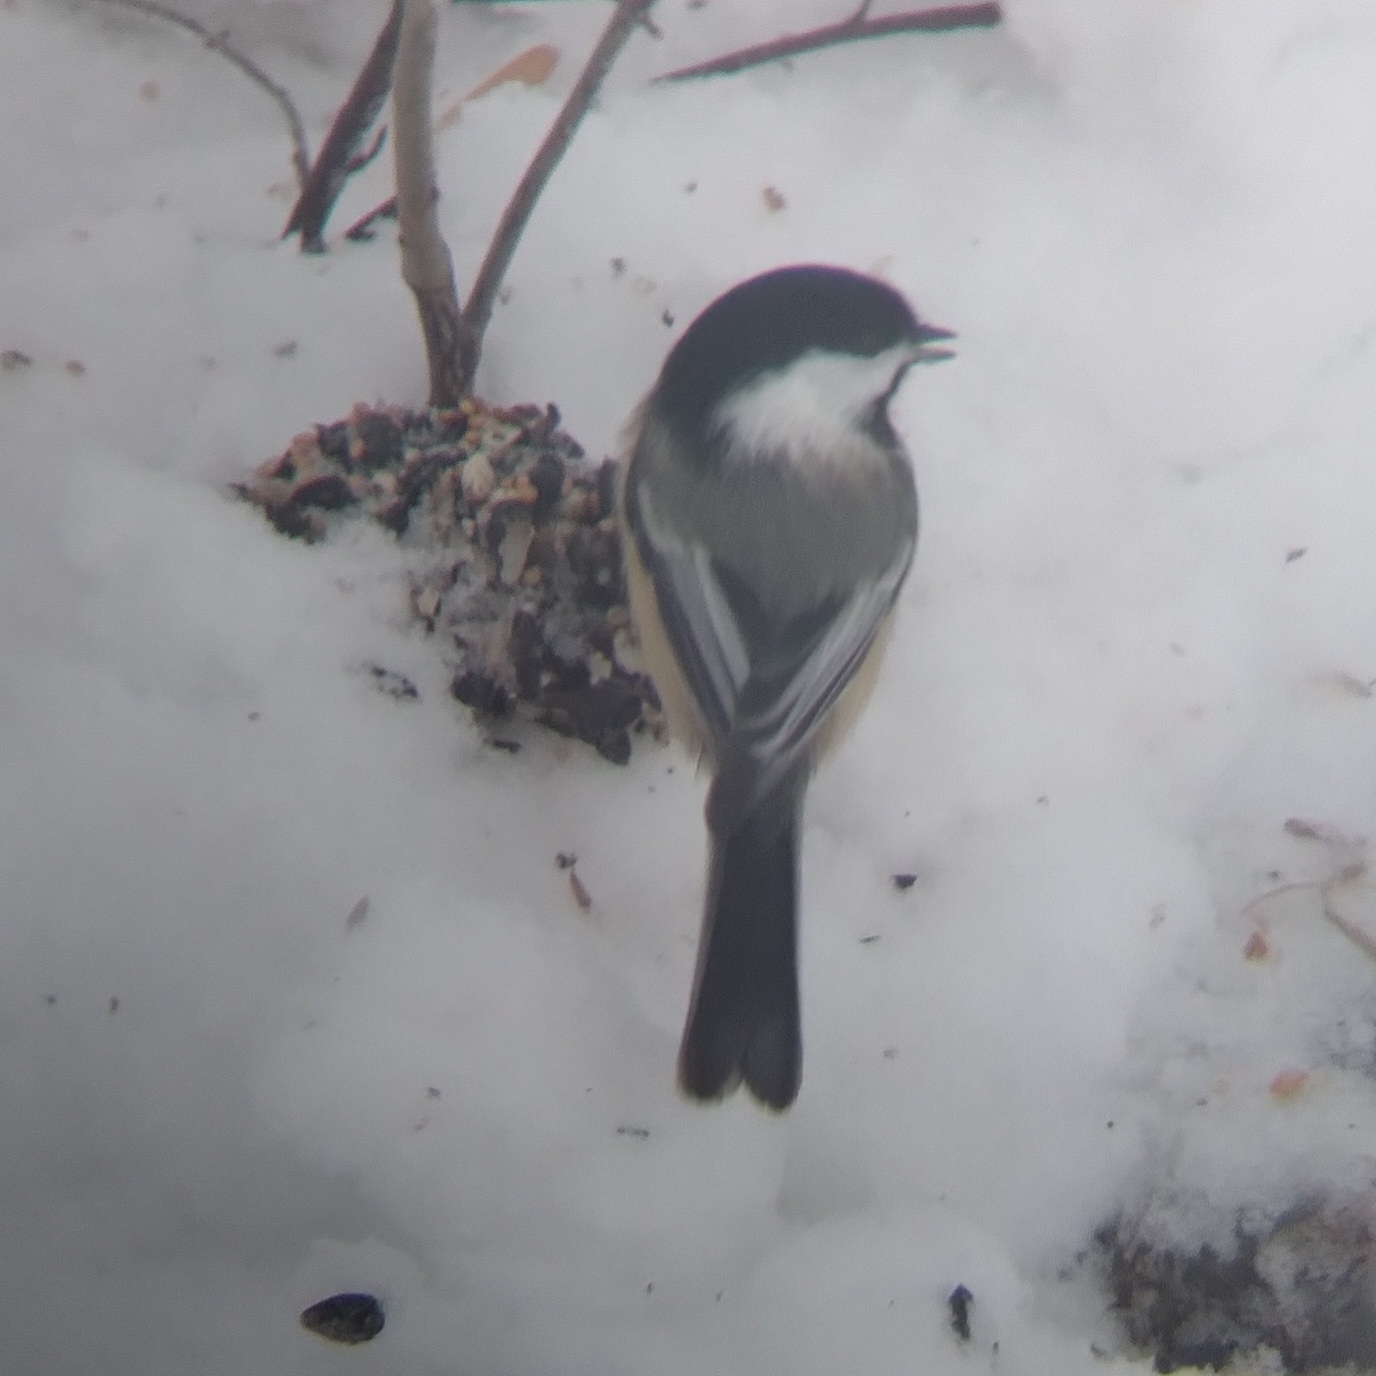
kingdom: Animalia
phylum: Chordata
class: Aves
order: Passeriformes
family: Paridae
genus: Poecile
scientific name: Poecile atricapillus
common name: Black-capped chickadee
